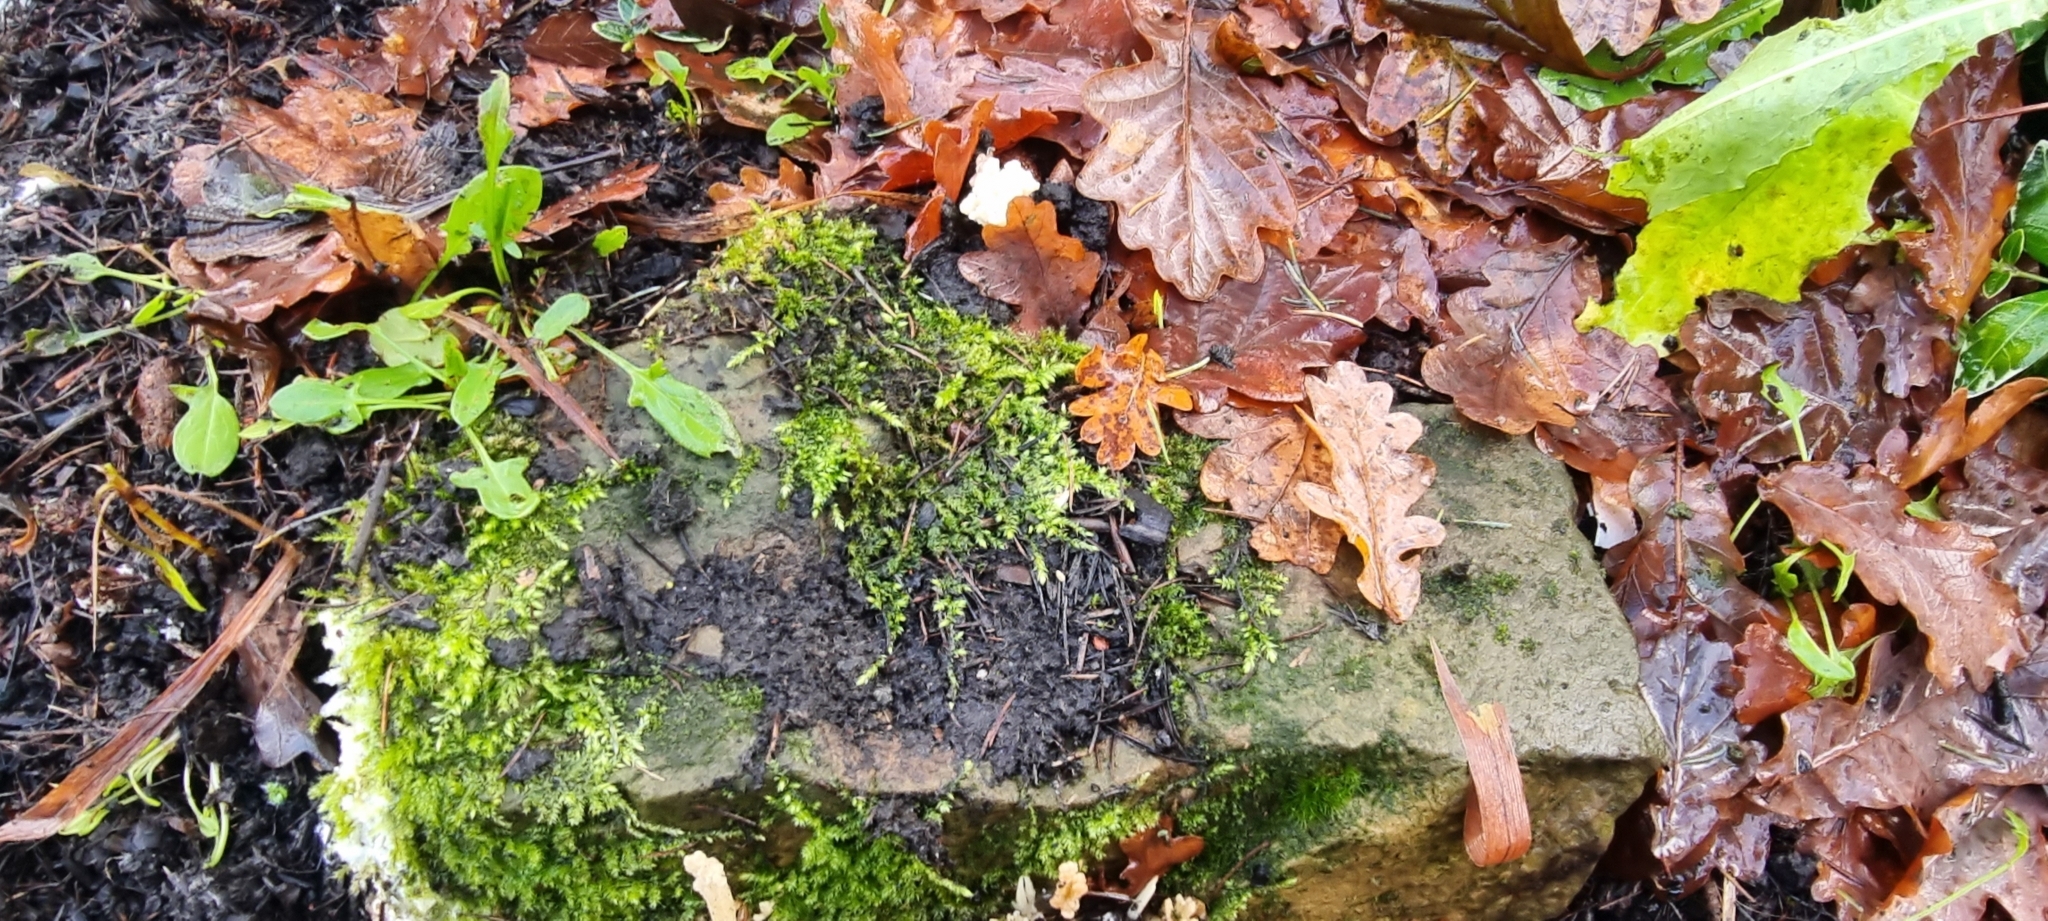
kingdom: Fungi
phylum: Basidiomycota
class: Agaricomycetes
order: Cantharellales
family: Hydnaceae
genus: Clavulina
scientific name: Clavulina rugosa
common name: Wrinkled club
